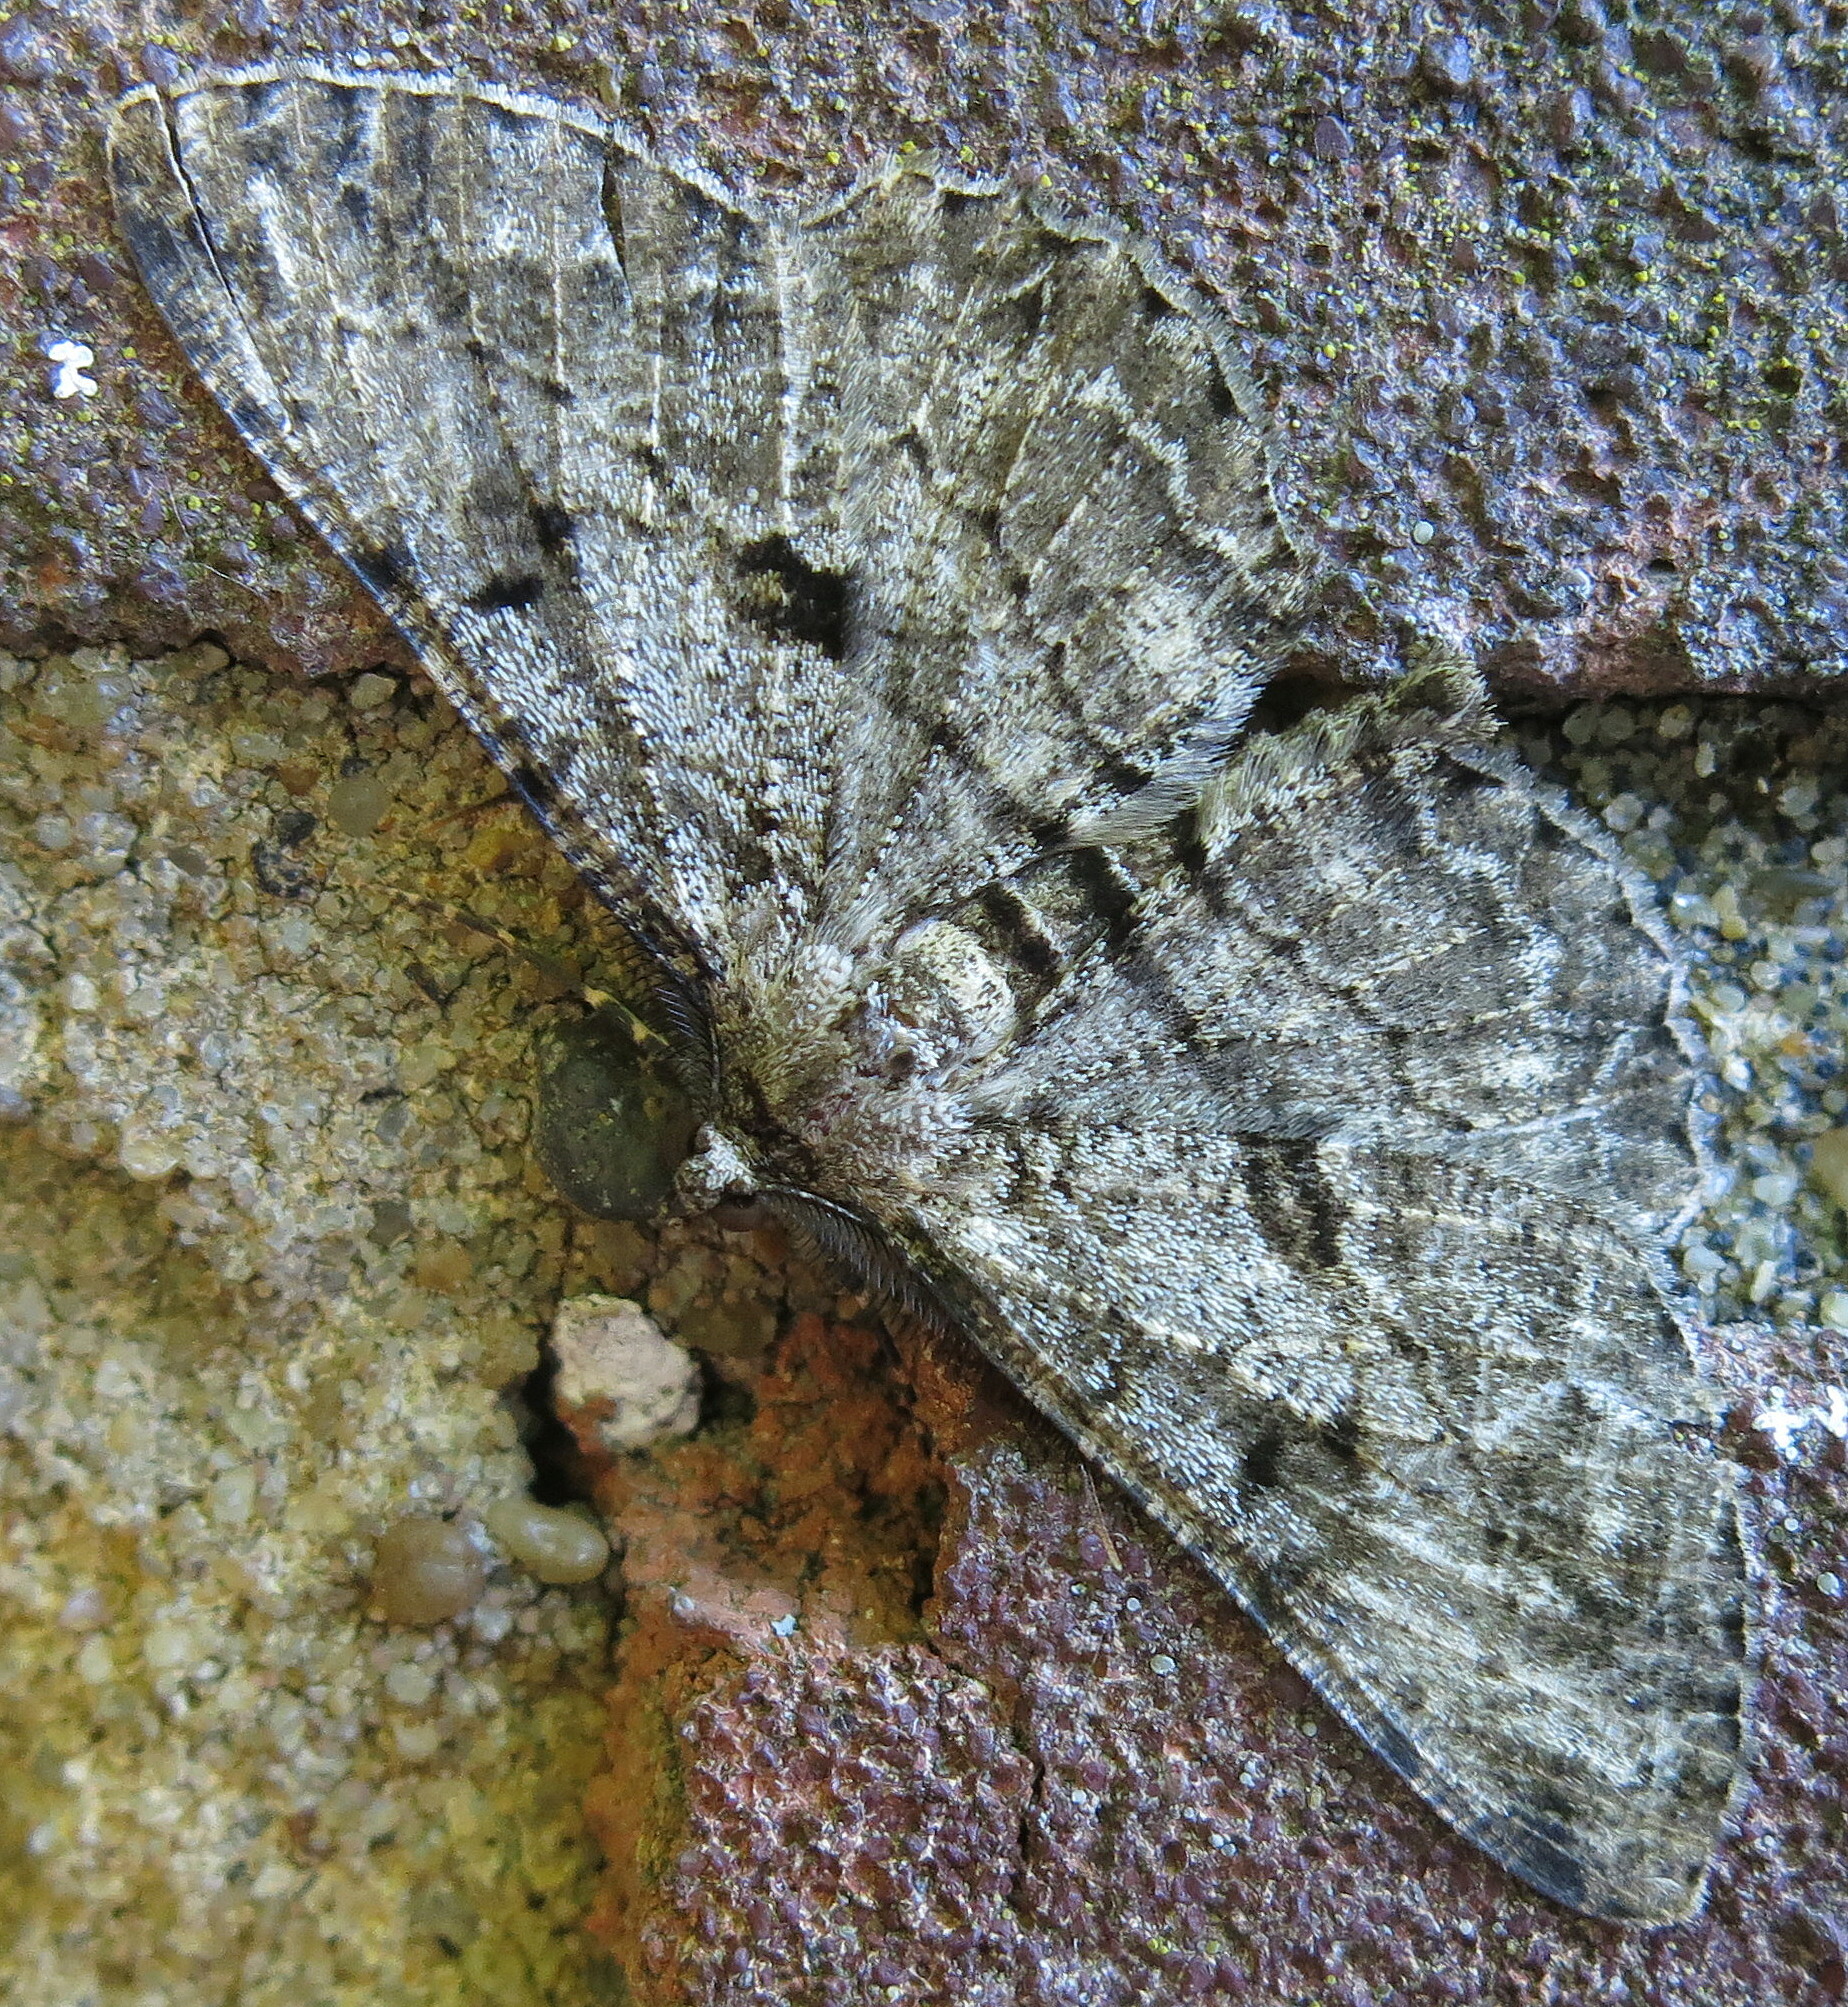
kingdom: Animalia
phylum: Arthropoda
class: Insecta
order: Lepidoptera
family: Geometridae
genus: Peribatodes
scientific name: Peribatodes rhomboidaria
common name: Willow beauty
